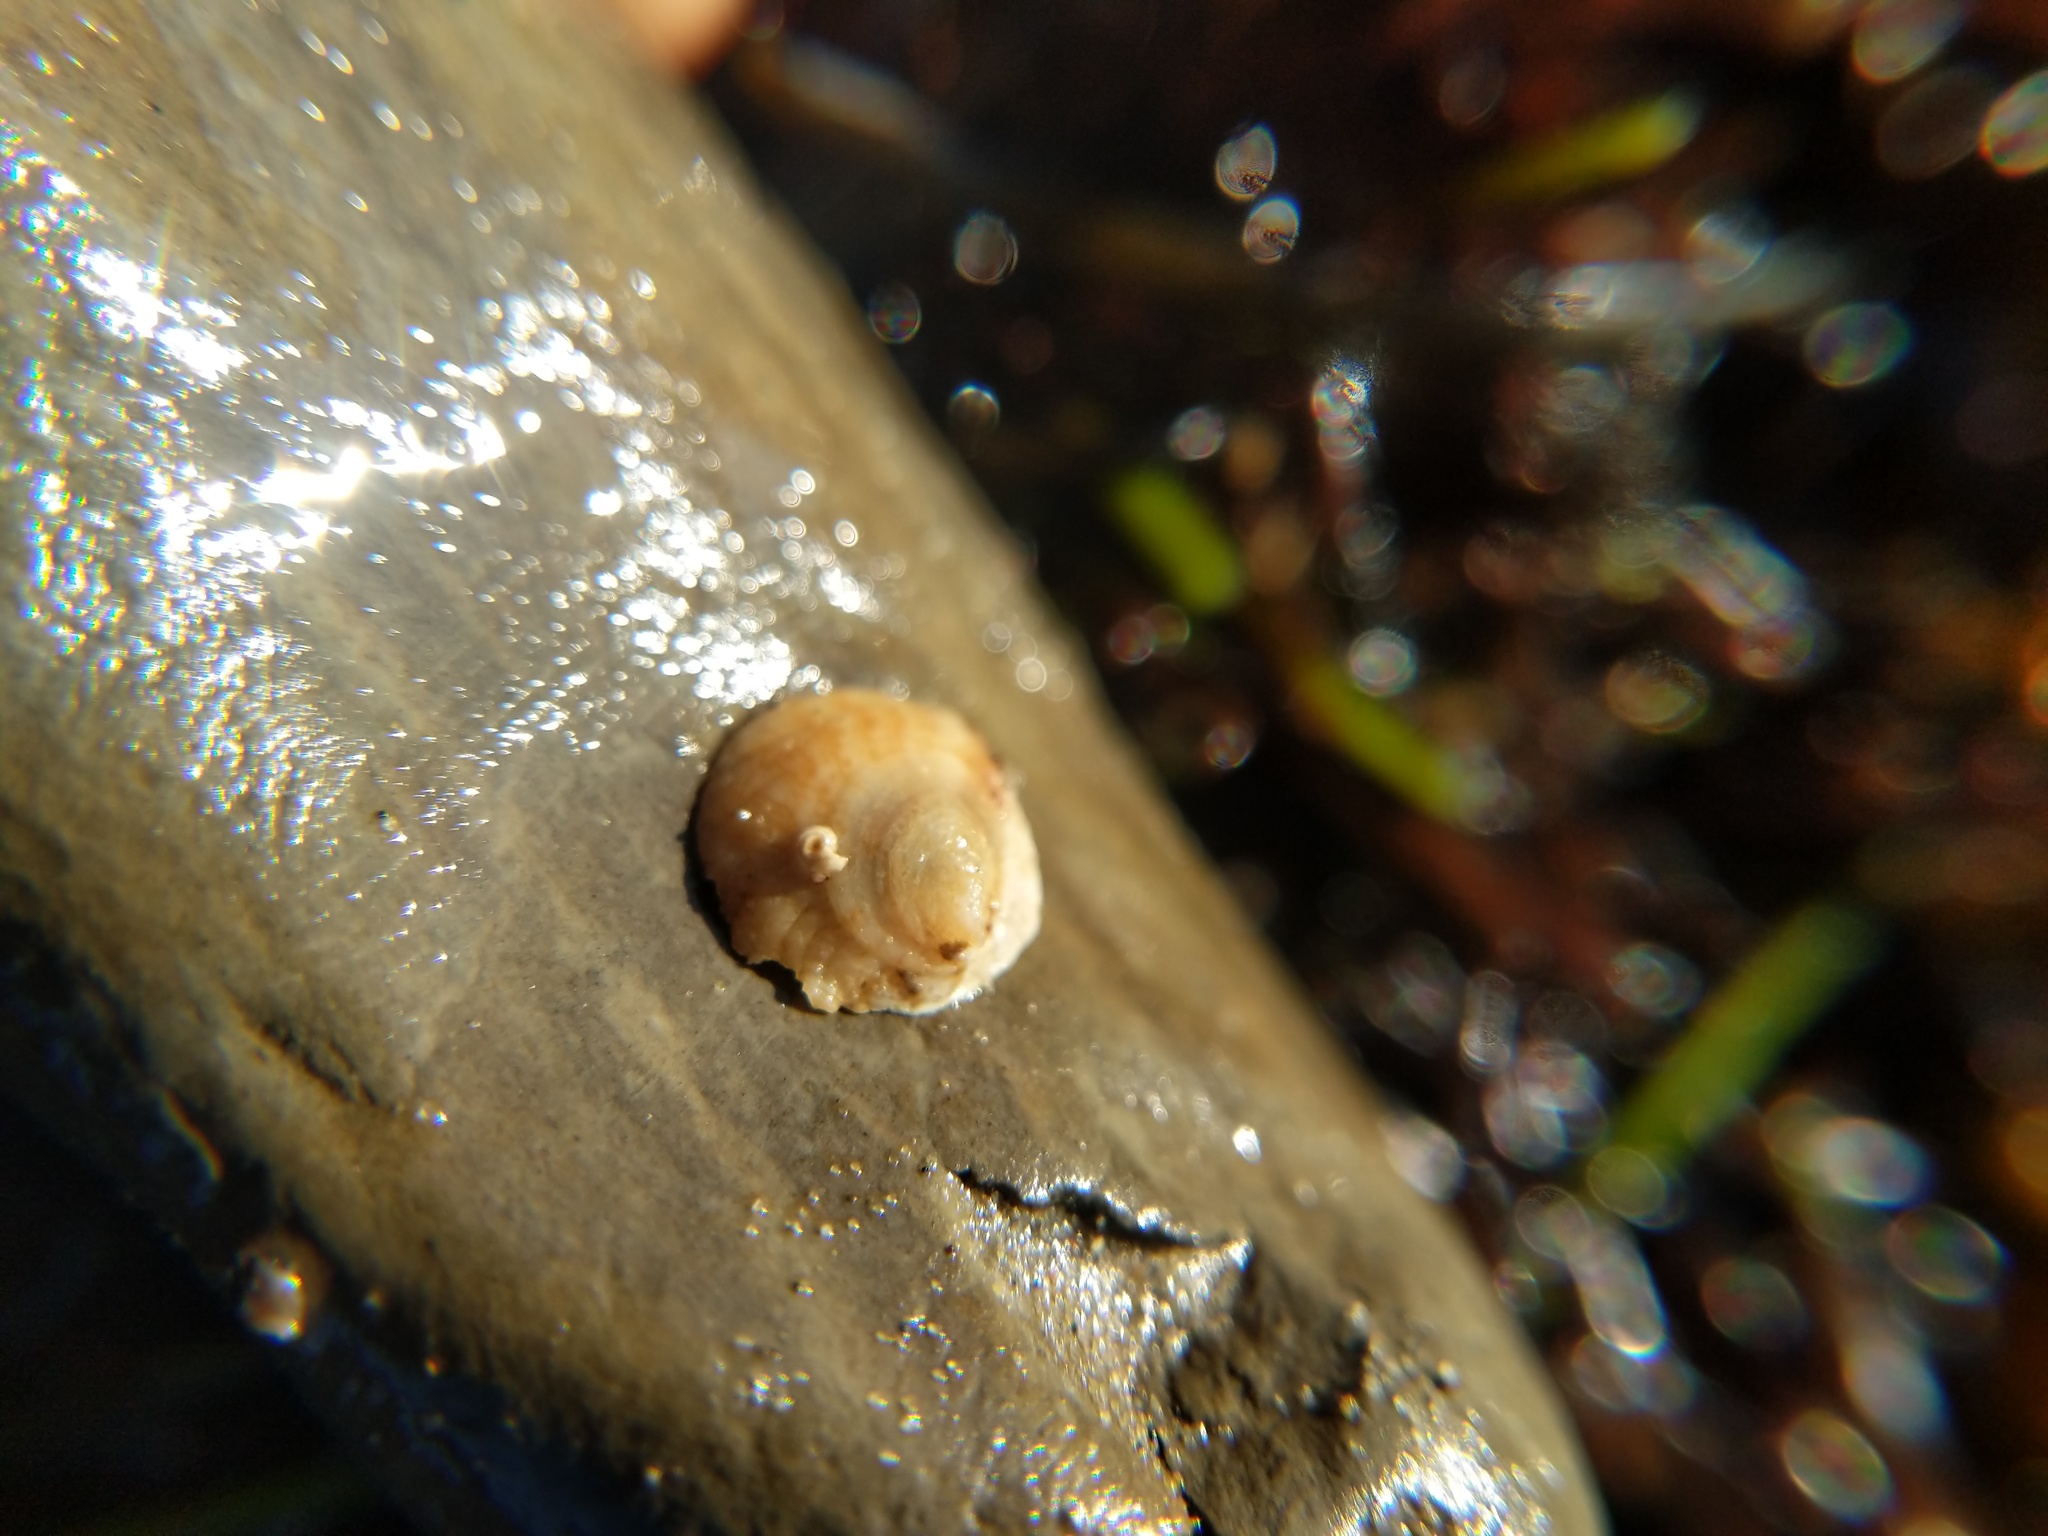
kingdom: Animalia
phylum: Mollusca
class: Gastropoda
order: Littorinimorpha
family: Calyptraeidae
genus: Crepipatella
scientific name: Crepipatella lingulata
